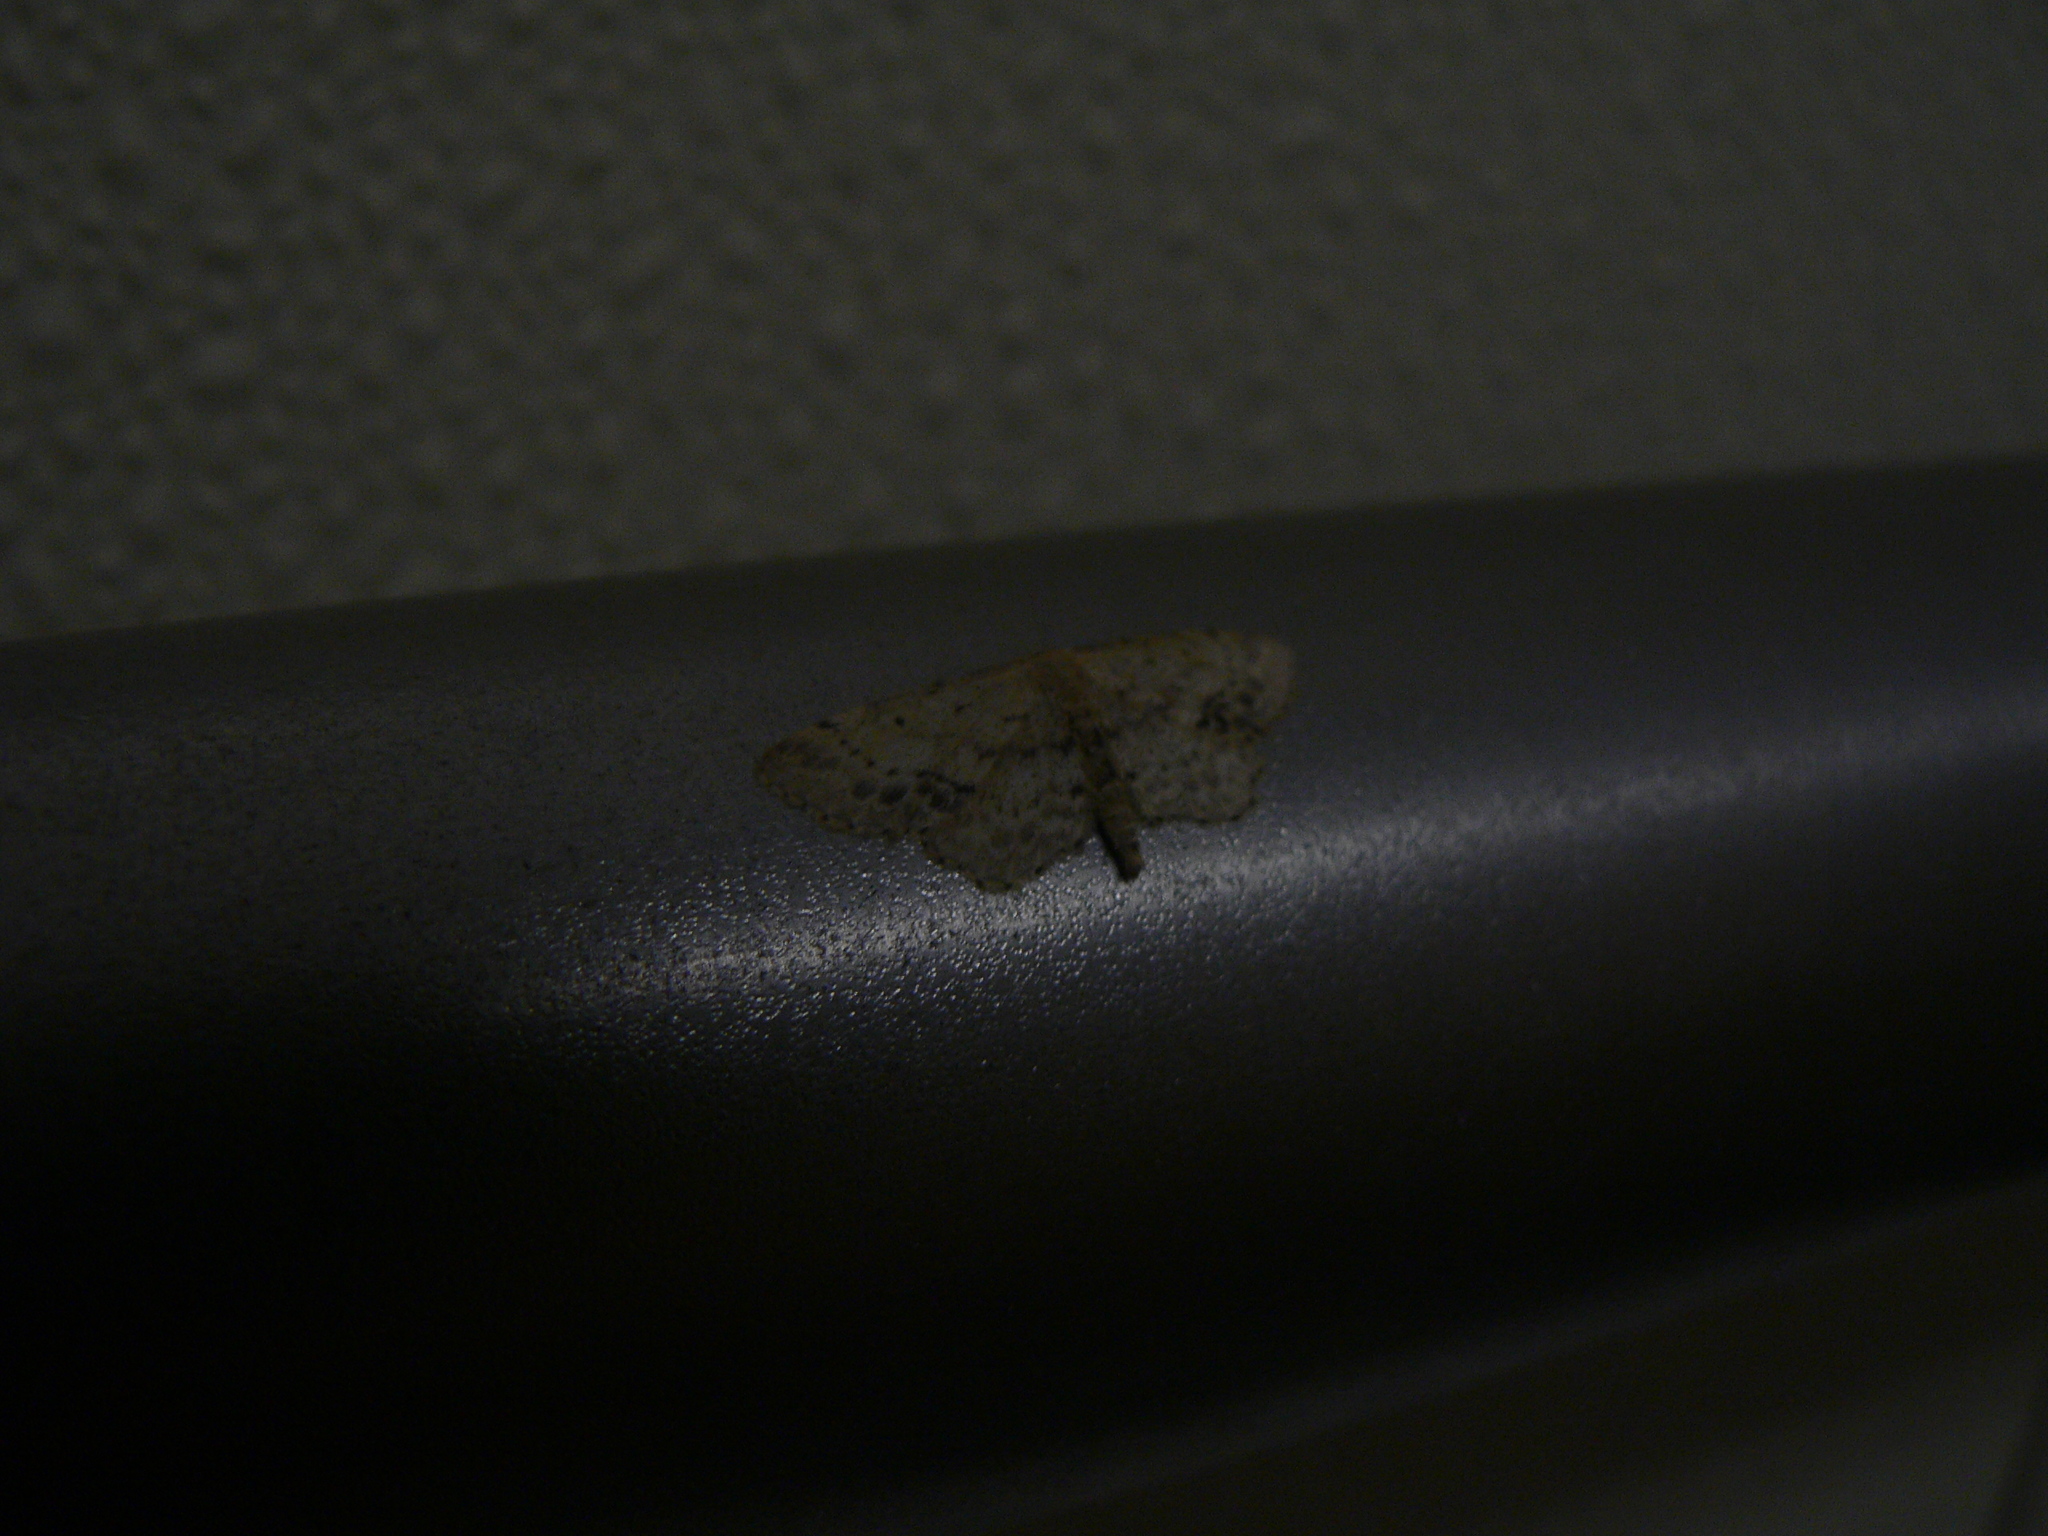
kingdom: Animalia
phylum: Arthropoda
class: Insecta
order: Lepidoptera
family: Geometridae
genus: Idaea
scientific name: Idaea dimidiata
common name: Single-dotted wave
